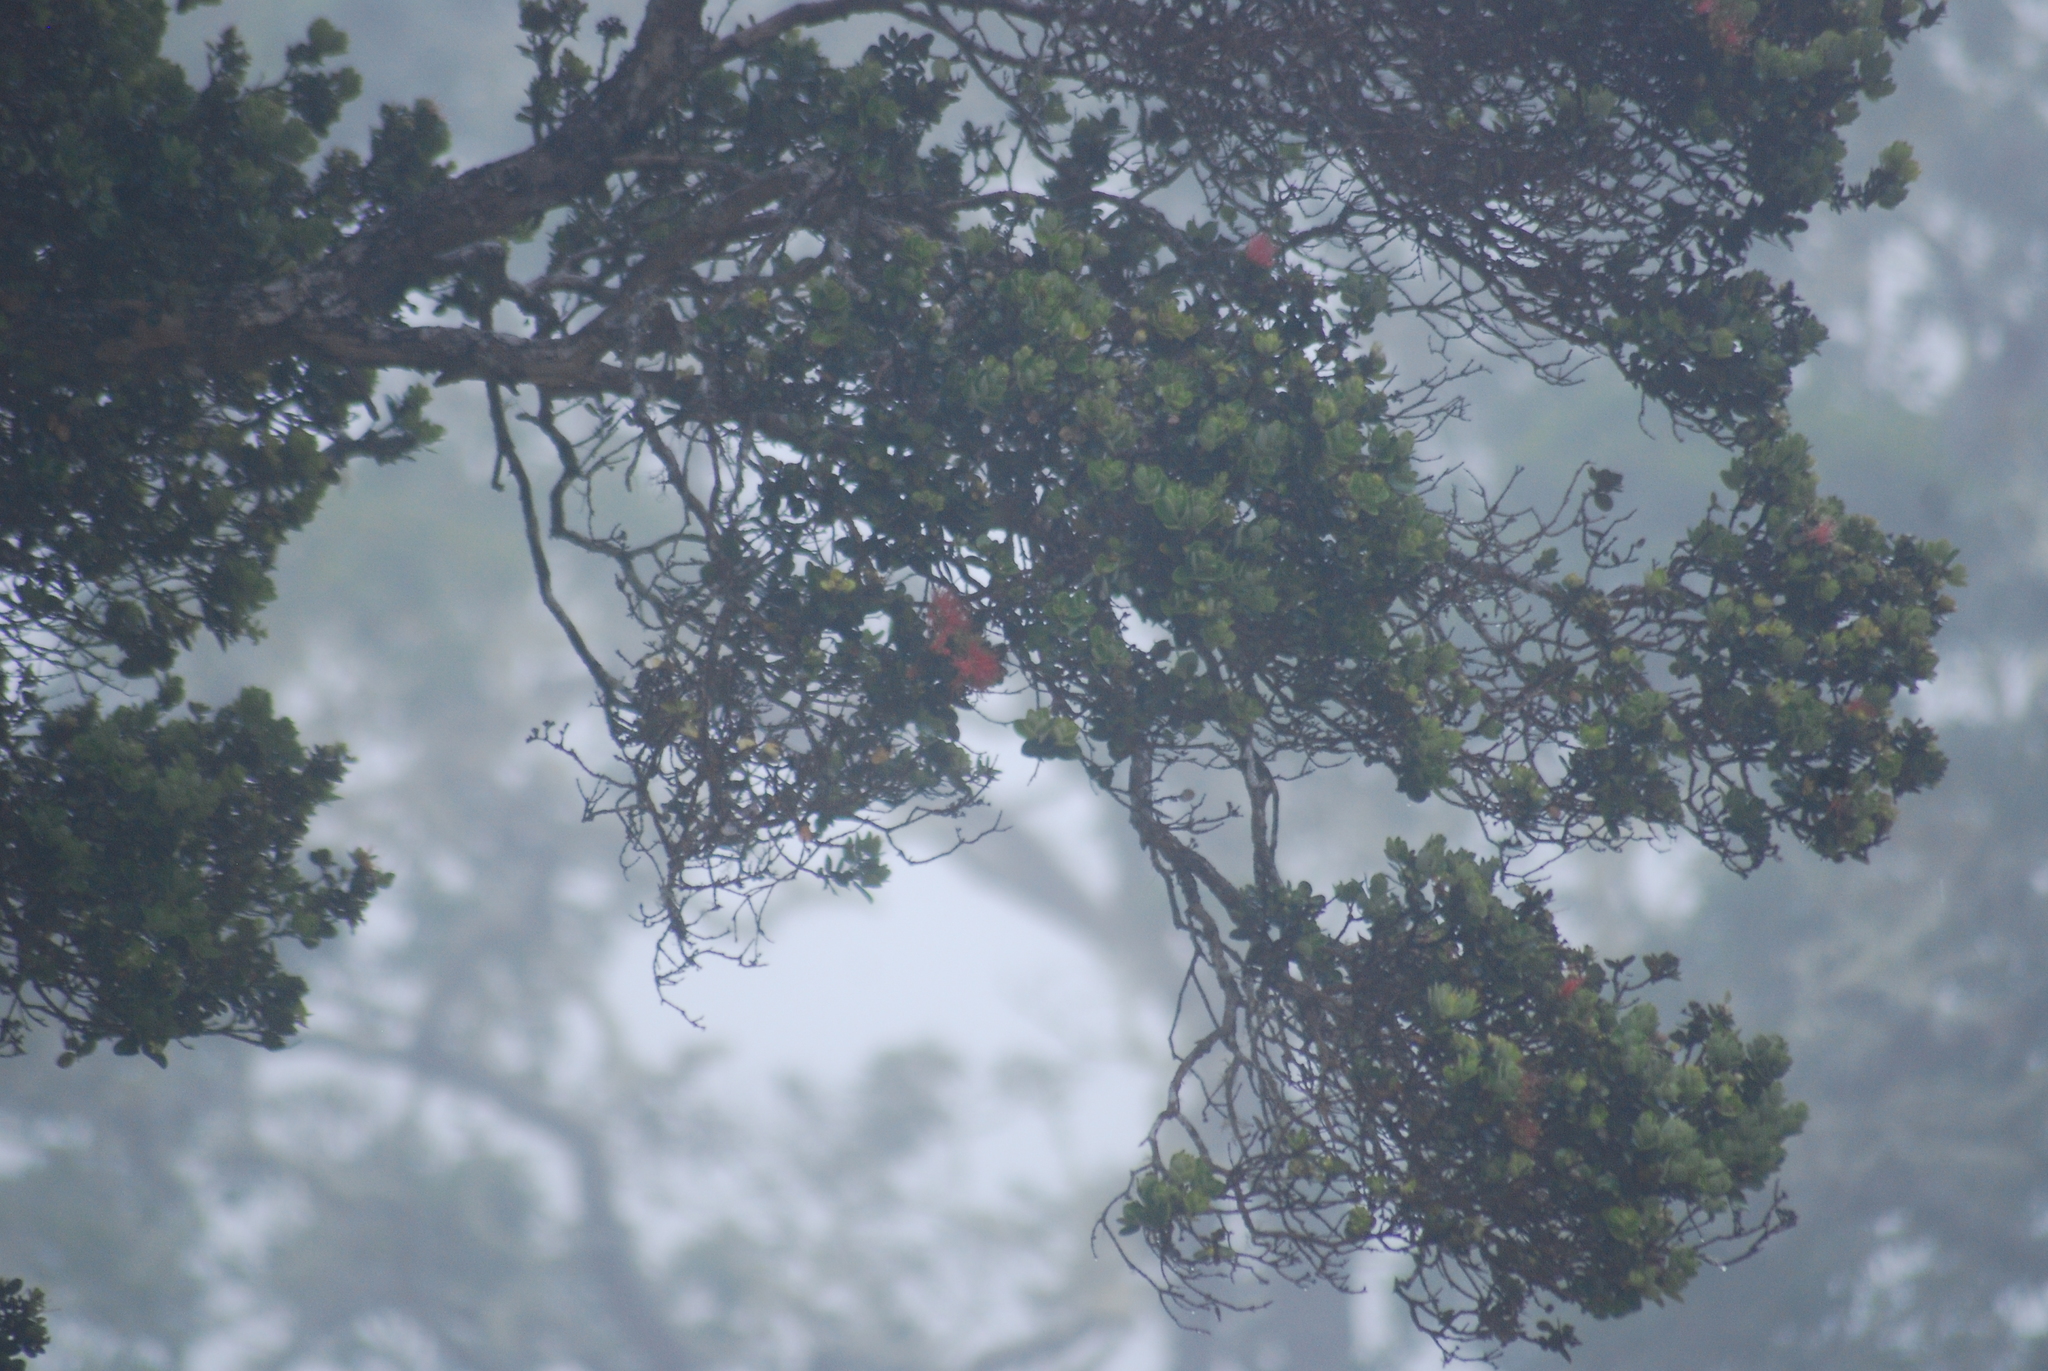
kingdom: Plantae
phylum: Tracheophyta
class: Magnoliopsida
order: Myrtales
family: Myrtaceae
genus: Metrosideros
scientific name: Metrosideros polymorpha
